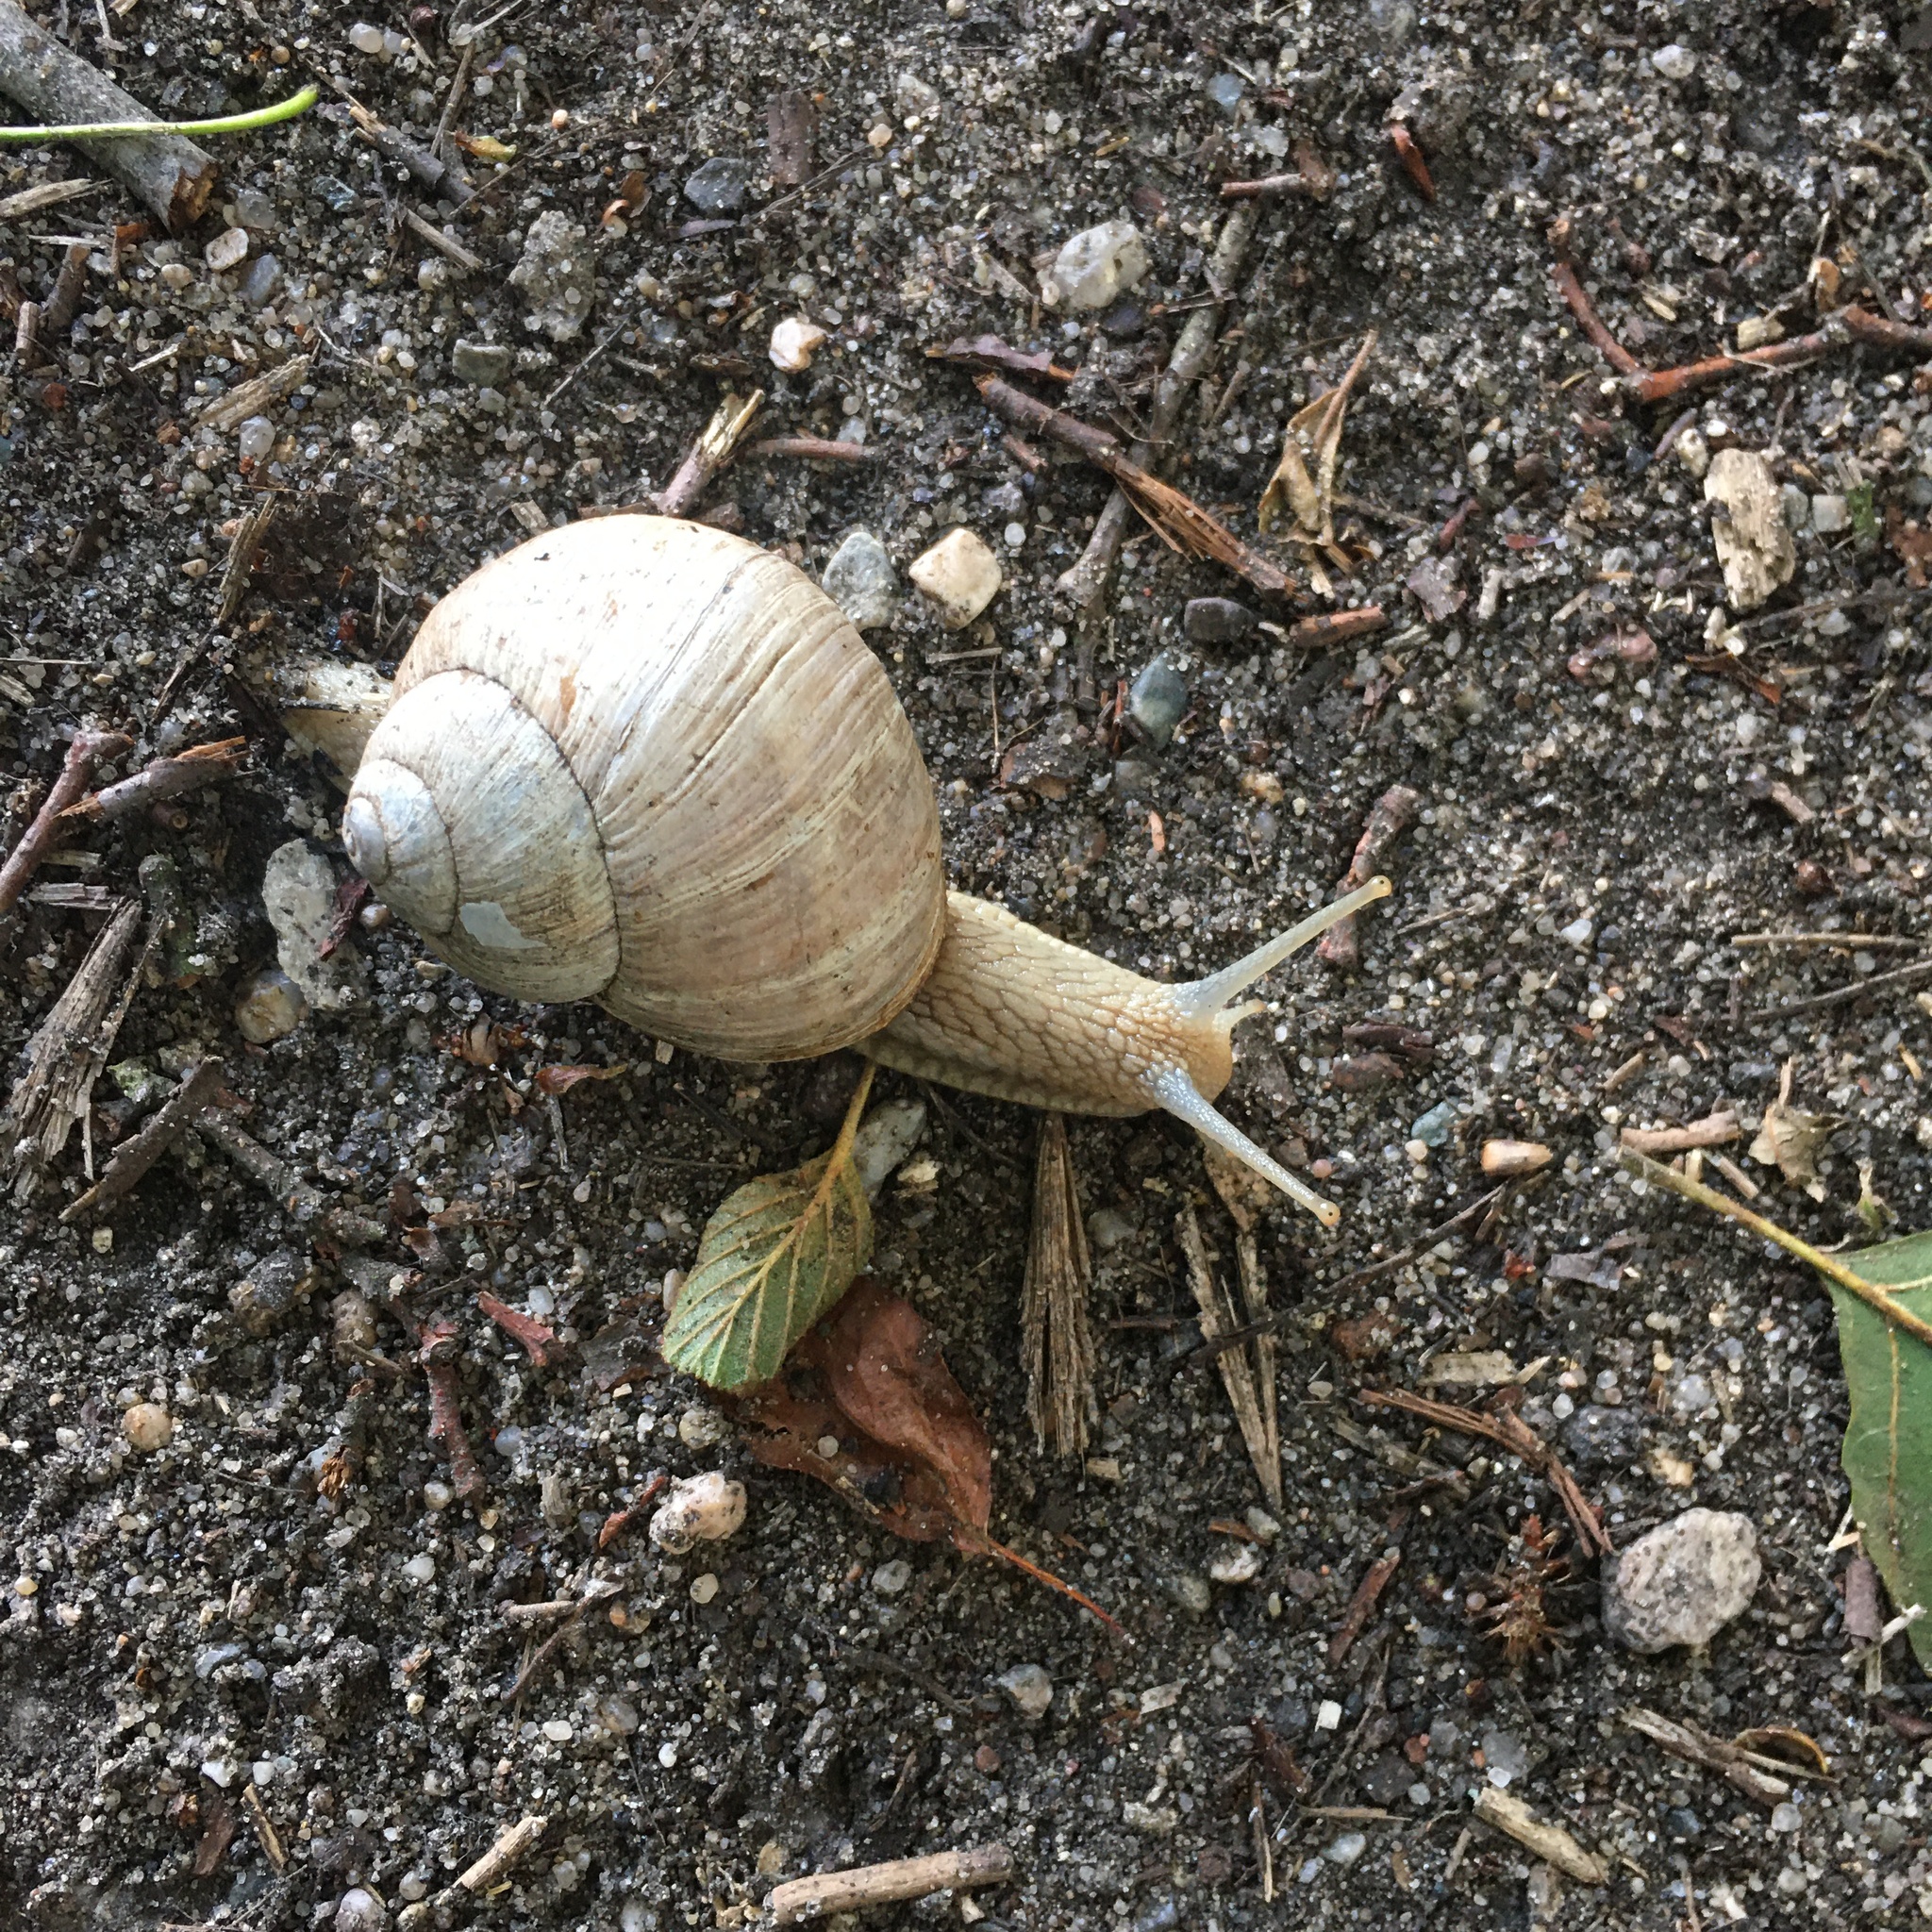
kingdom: Animalia
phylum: Mollusca
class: Gastropoda
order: Stylommatophora
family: Helicidae
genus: Helix
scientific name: Helix pomatia
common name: Roman snail
